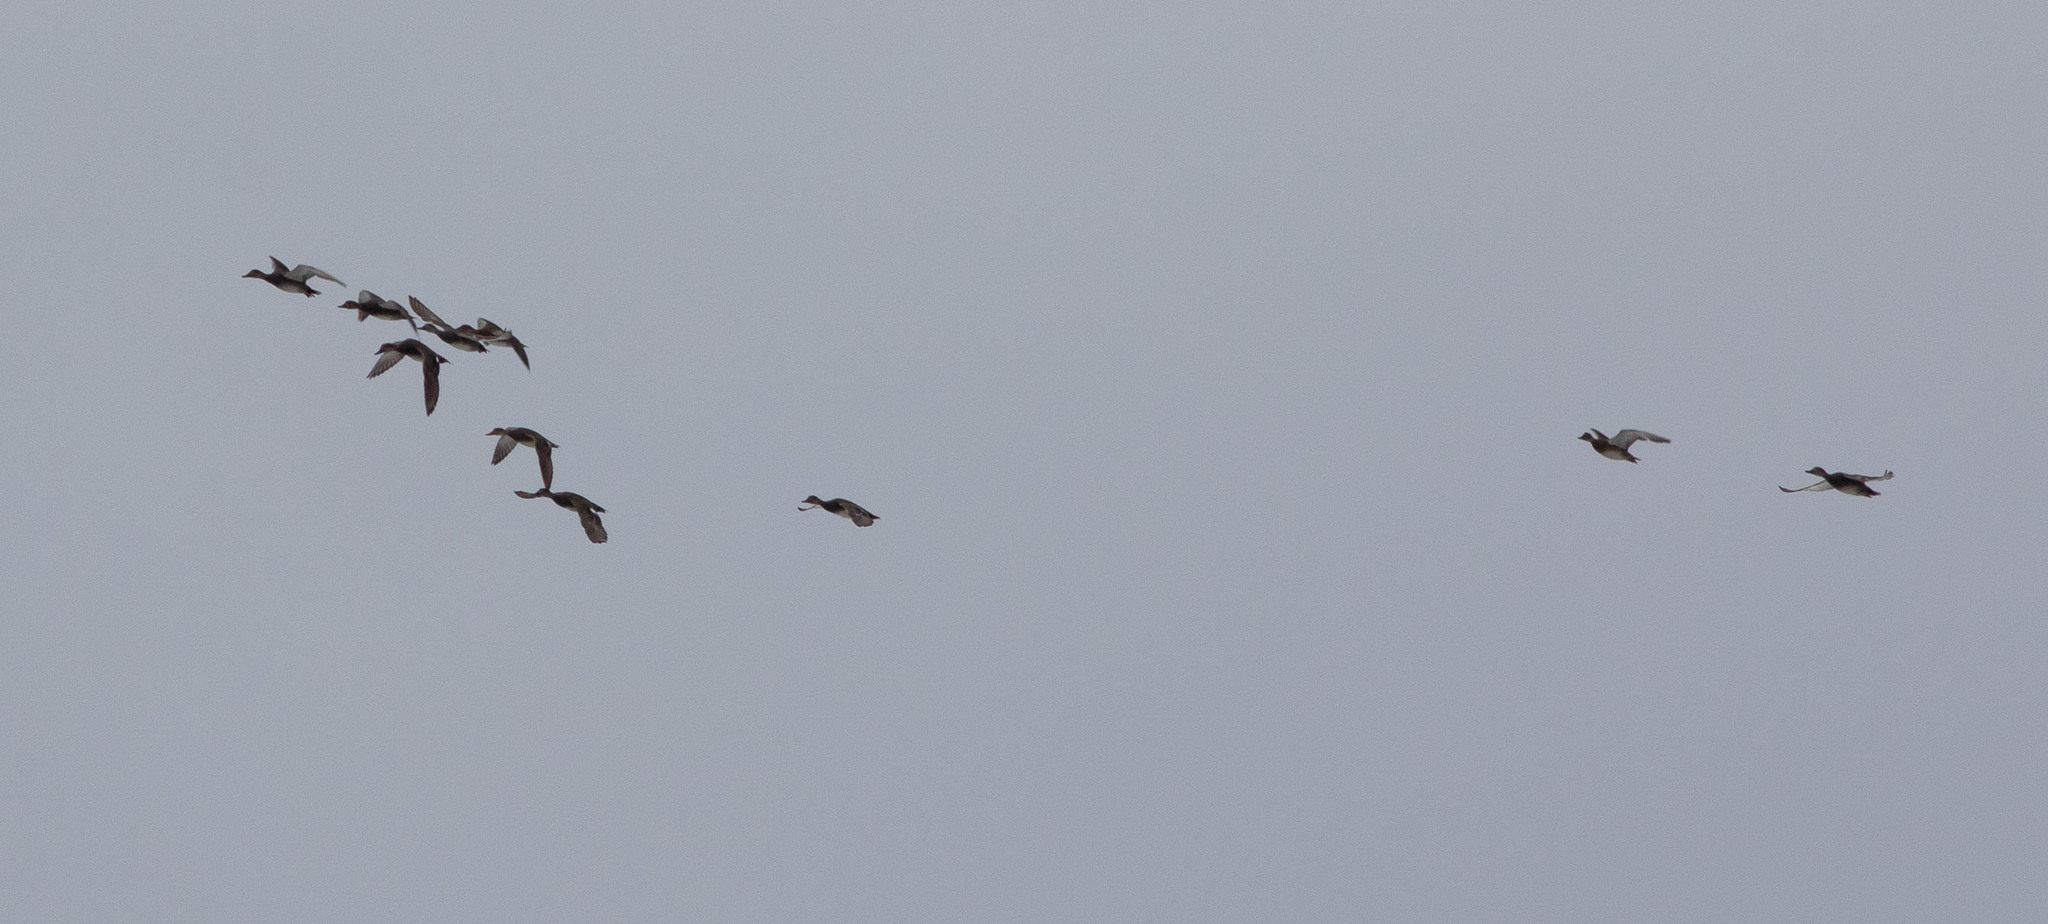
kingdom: Animalia
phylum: Chordata
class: Aves
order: Anseriformes
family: Anatidae
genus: Mareca
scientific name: Mareca strepera
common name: Gadwall
